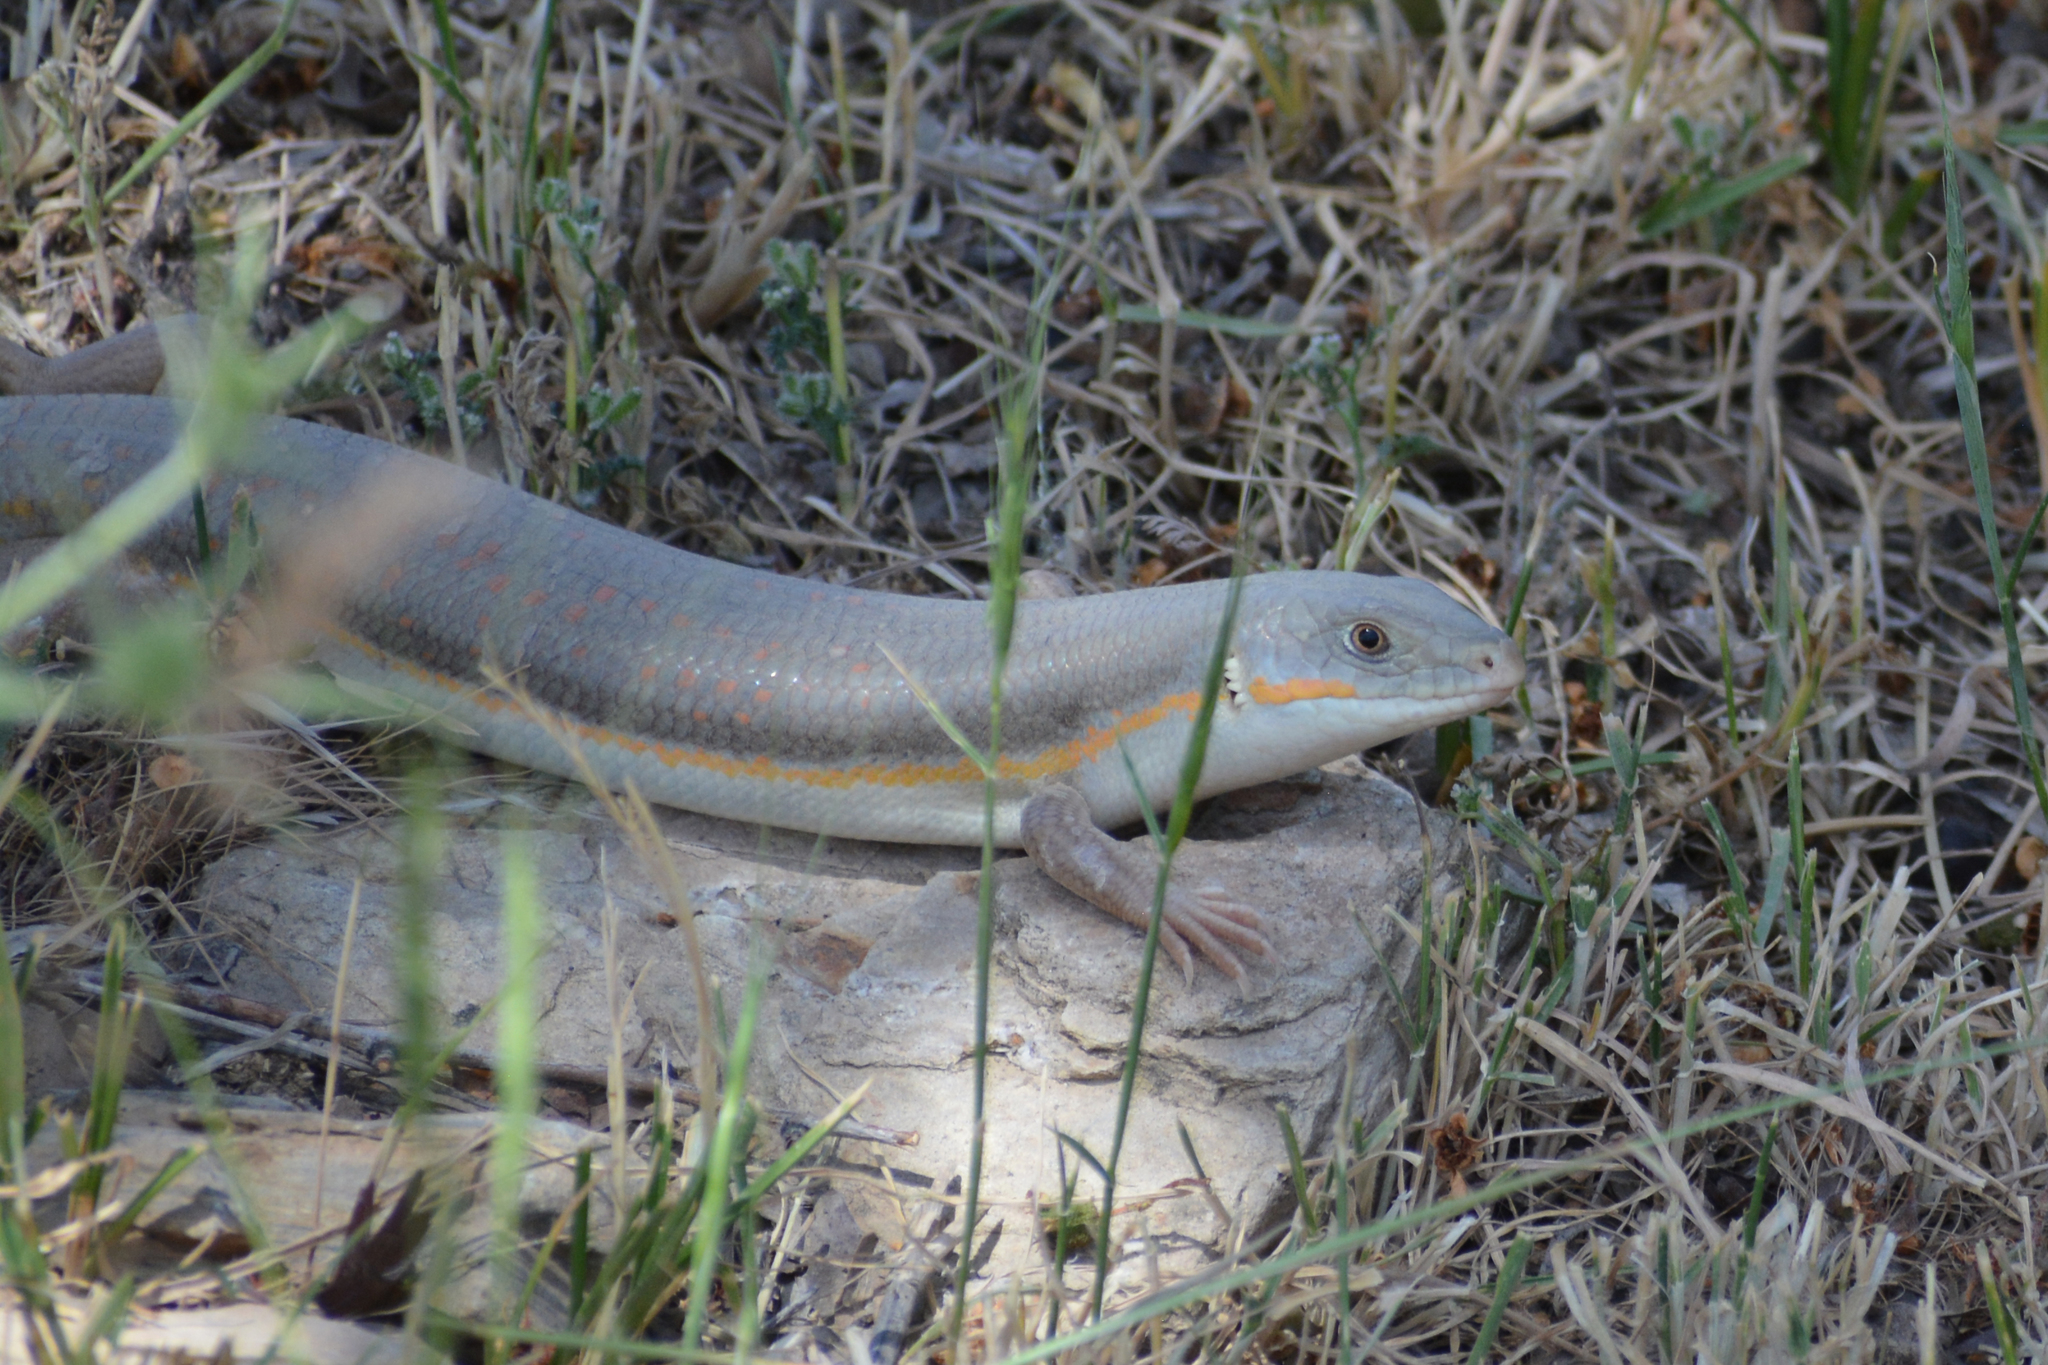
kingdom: Animalia
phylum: Chordata
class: Squamata
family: Scincidae
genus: Eumeces
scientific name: Eumeces schneiderii
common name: Schneider's skink
